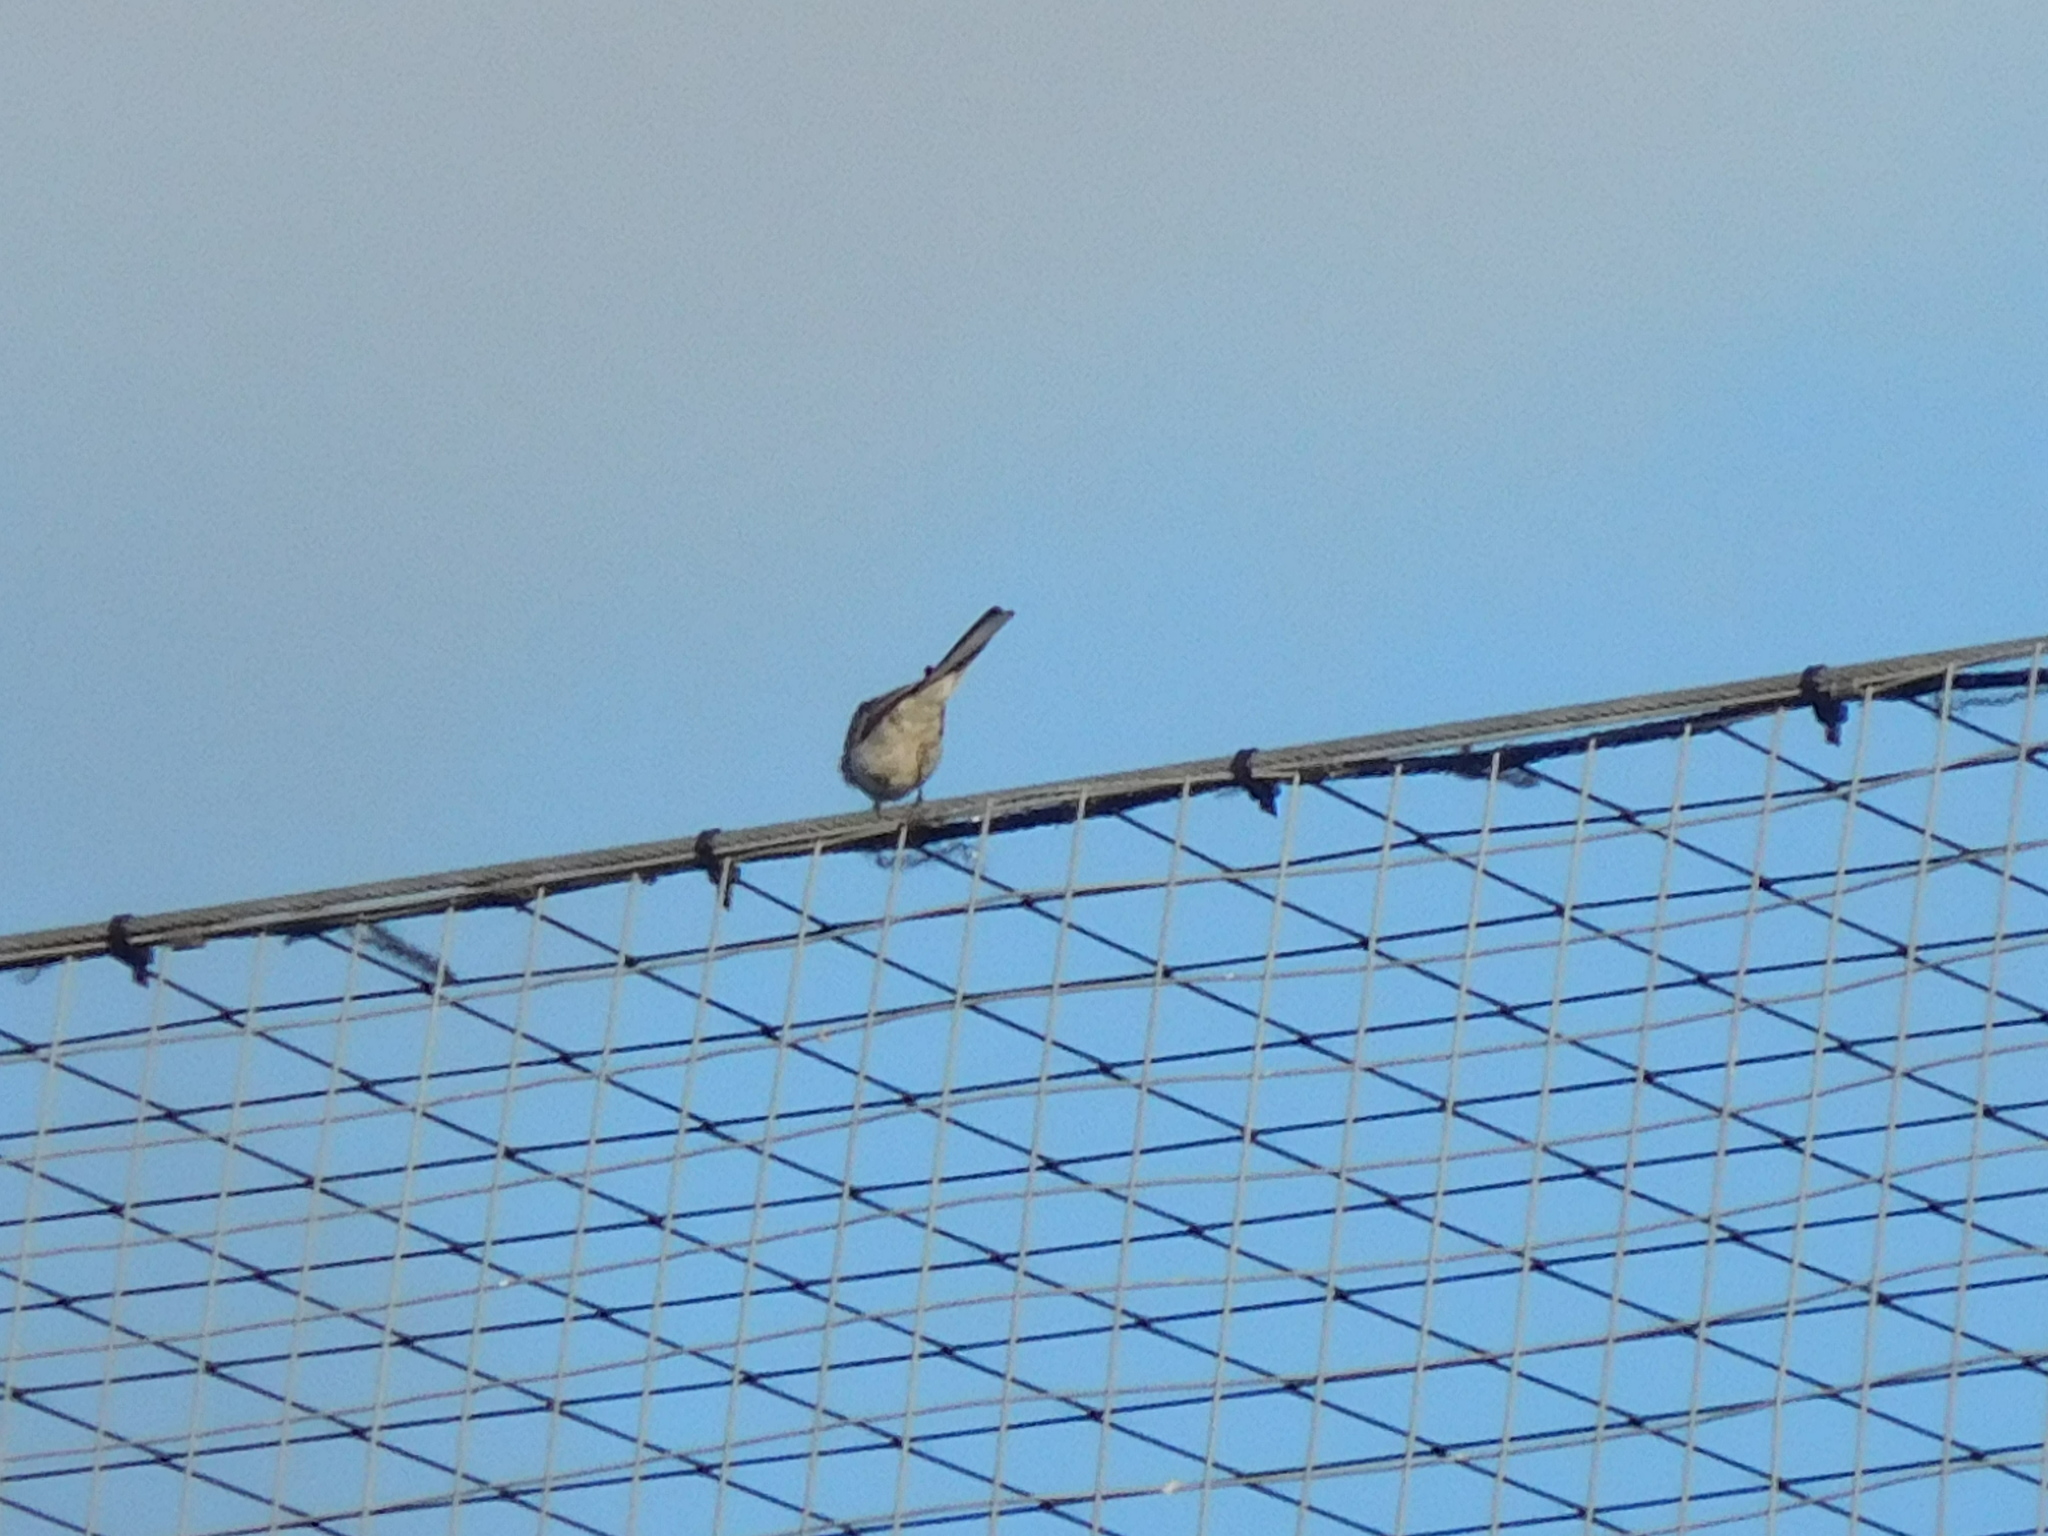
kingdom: Animalia
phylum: Chordata
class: Aves
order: Passeriformes
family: Motacillidae
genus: Motacilla
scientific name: Motacilla alba
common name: White wagtail
